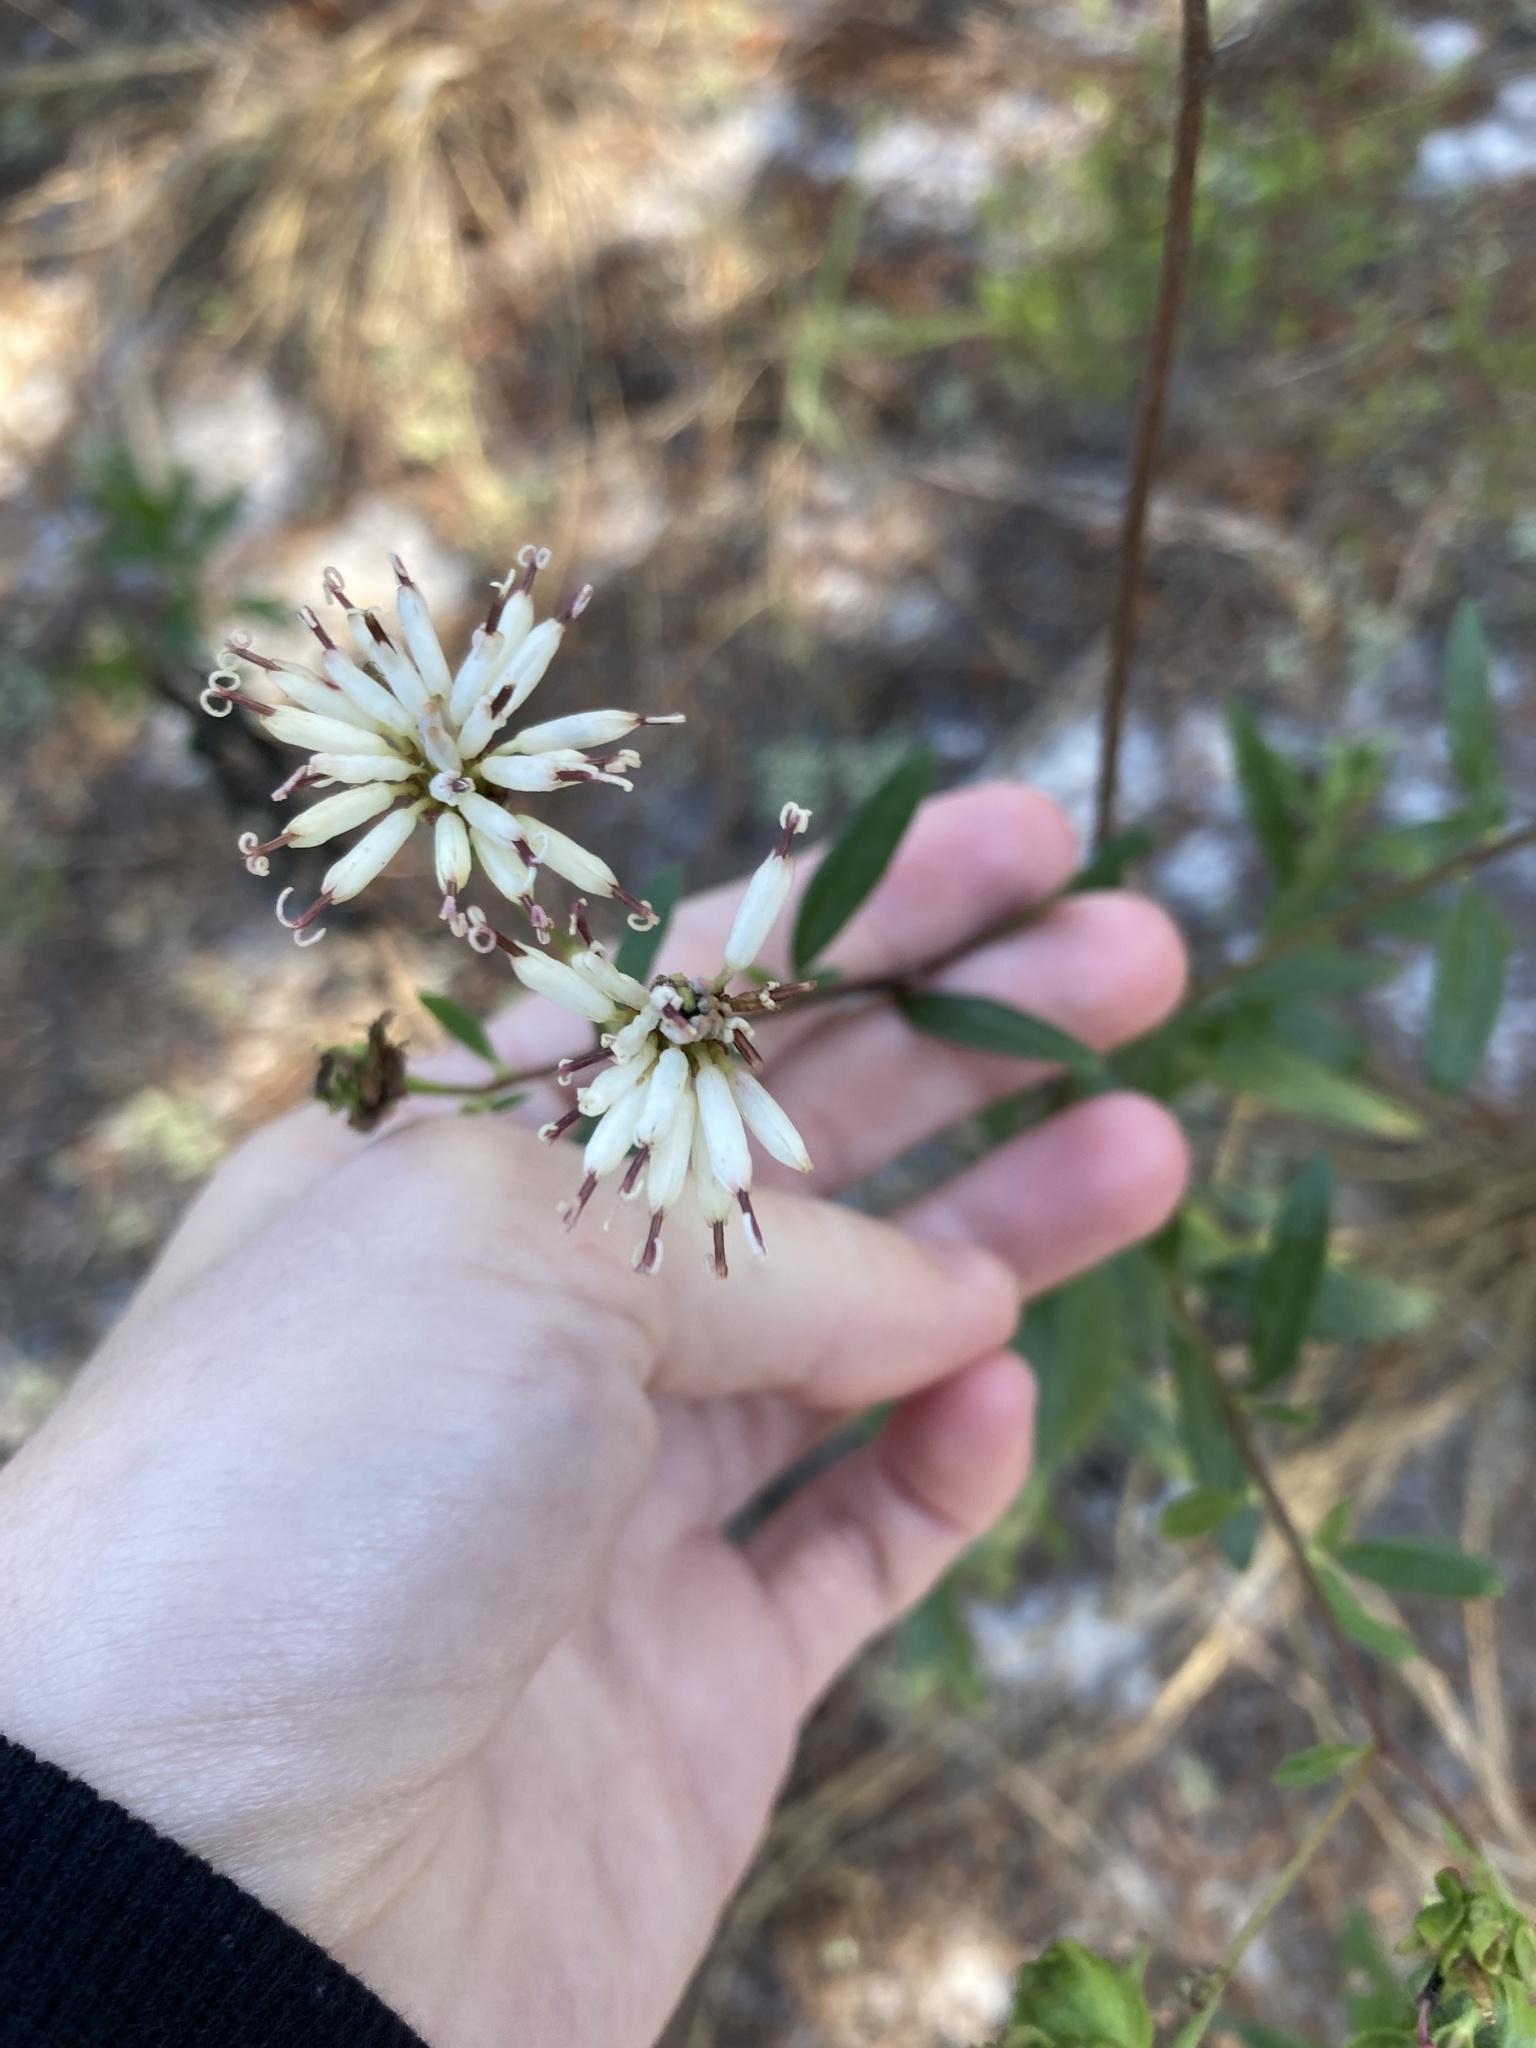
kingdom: Plantae
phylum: Tracheophyta
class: Magnoliopsida
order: Asterales
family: Asteraceae
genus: Palafoxia
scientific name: Palafoxia feayi
